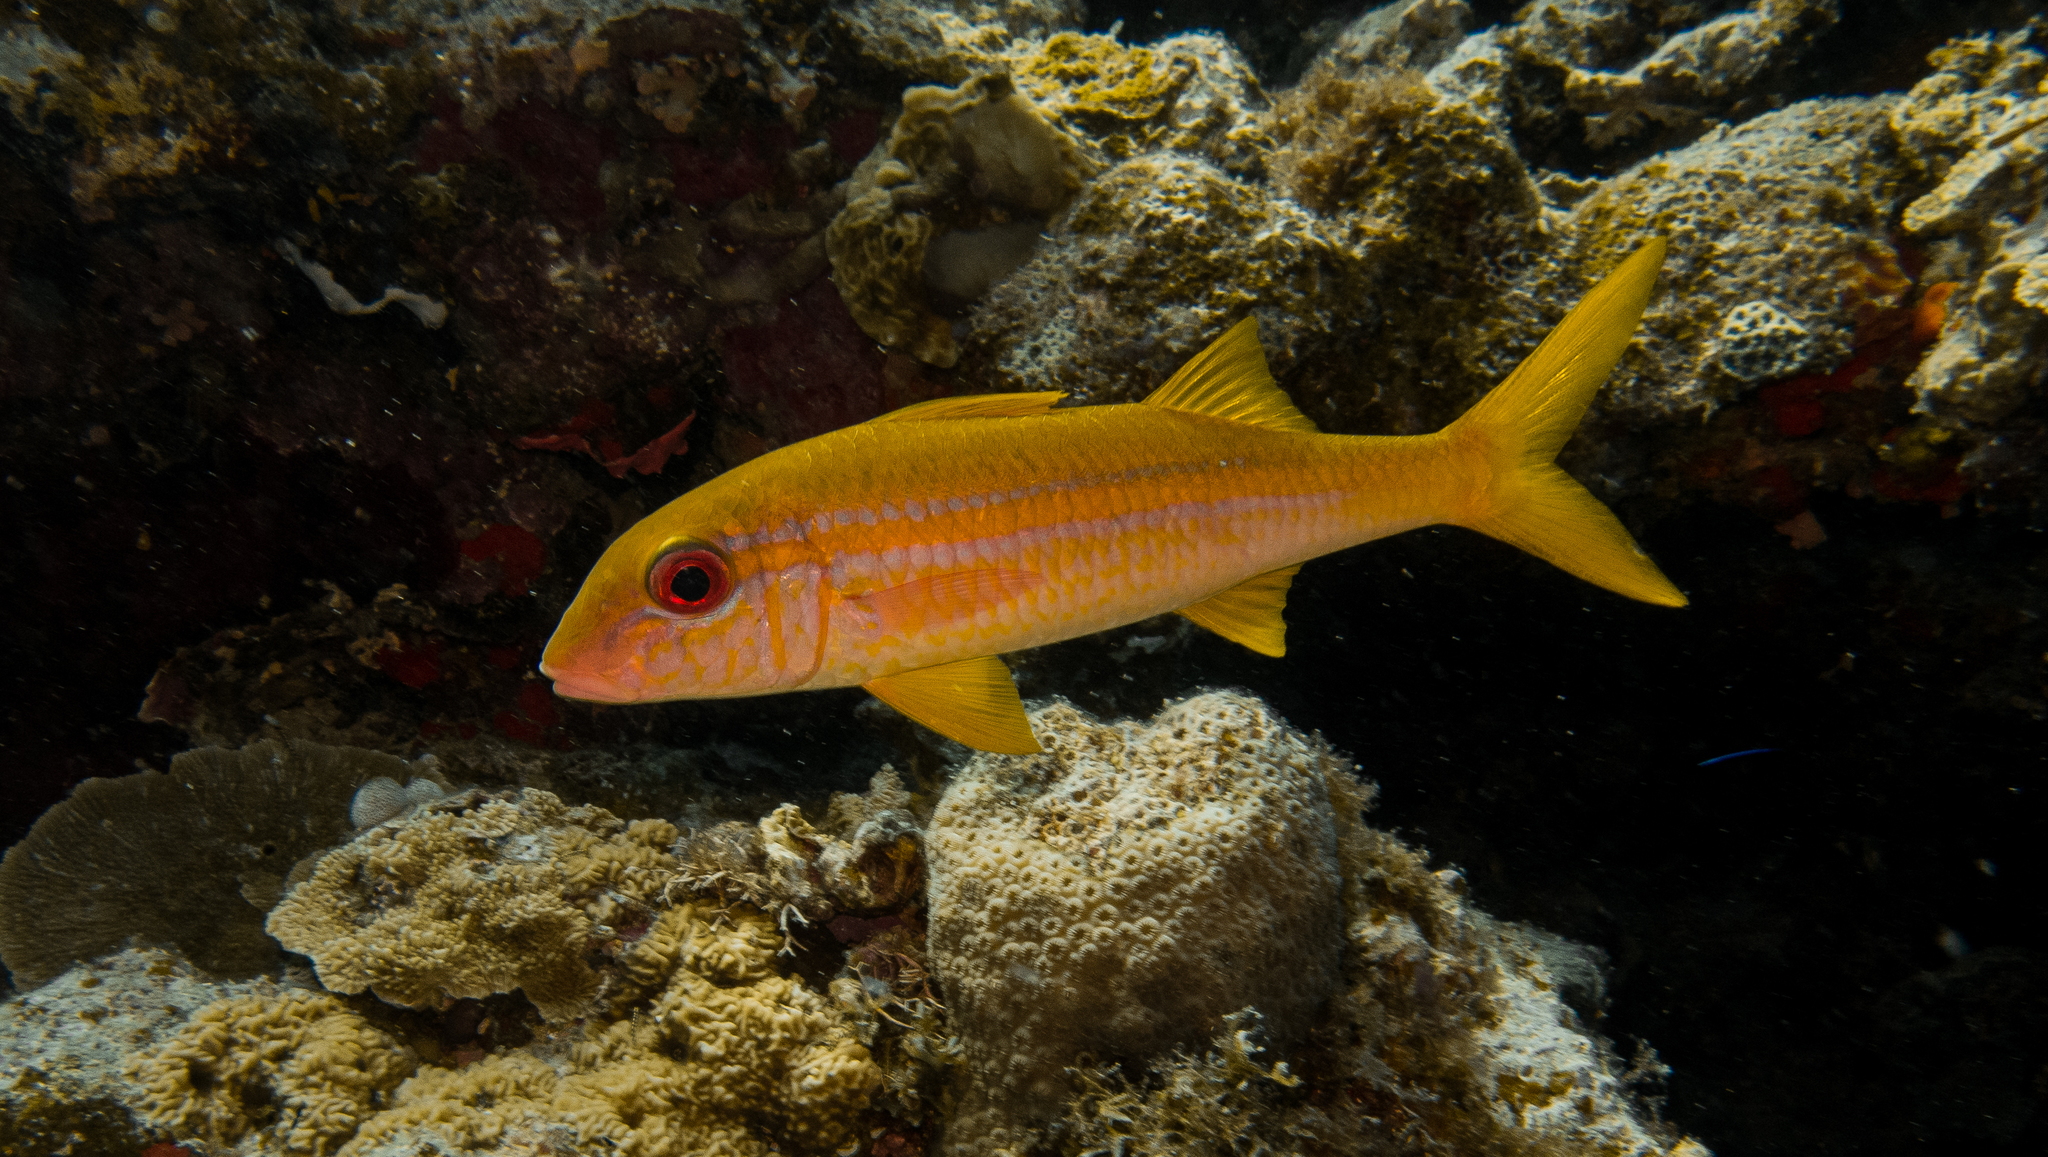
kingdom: Animalia
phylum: Chordata
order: Perciformes
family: Mullidae
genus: Mulloidichthys
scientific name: Mulloidichthys vanicolensis
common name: Yellowfin goatfish
